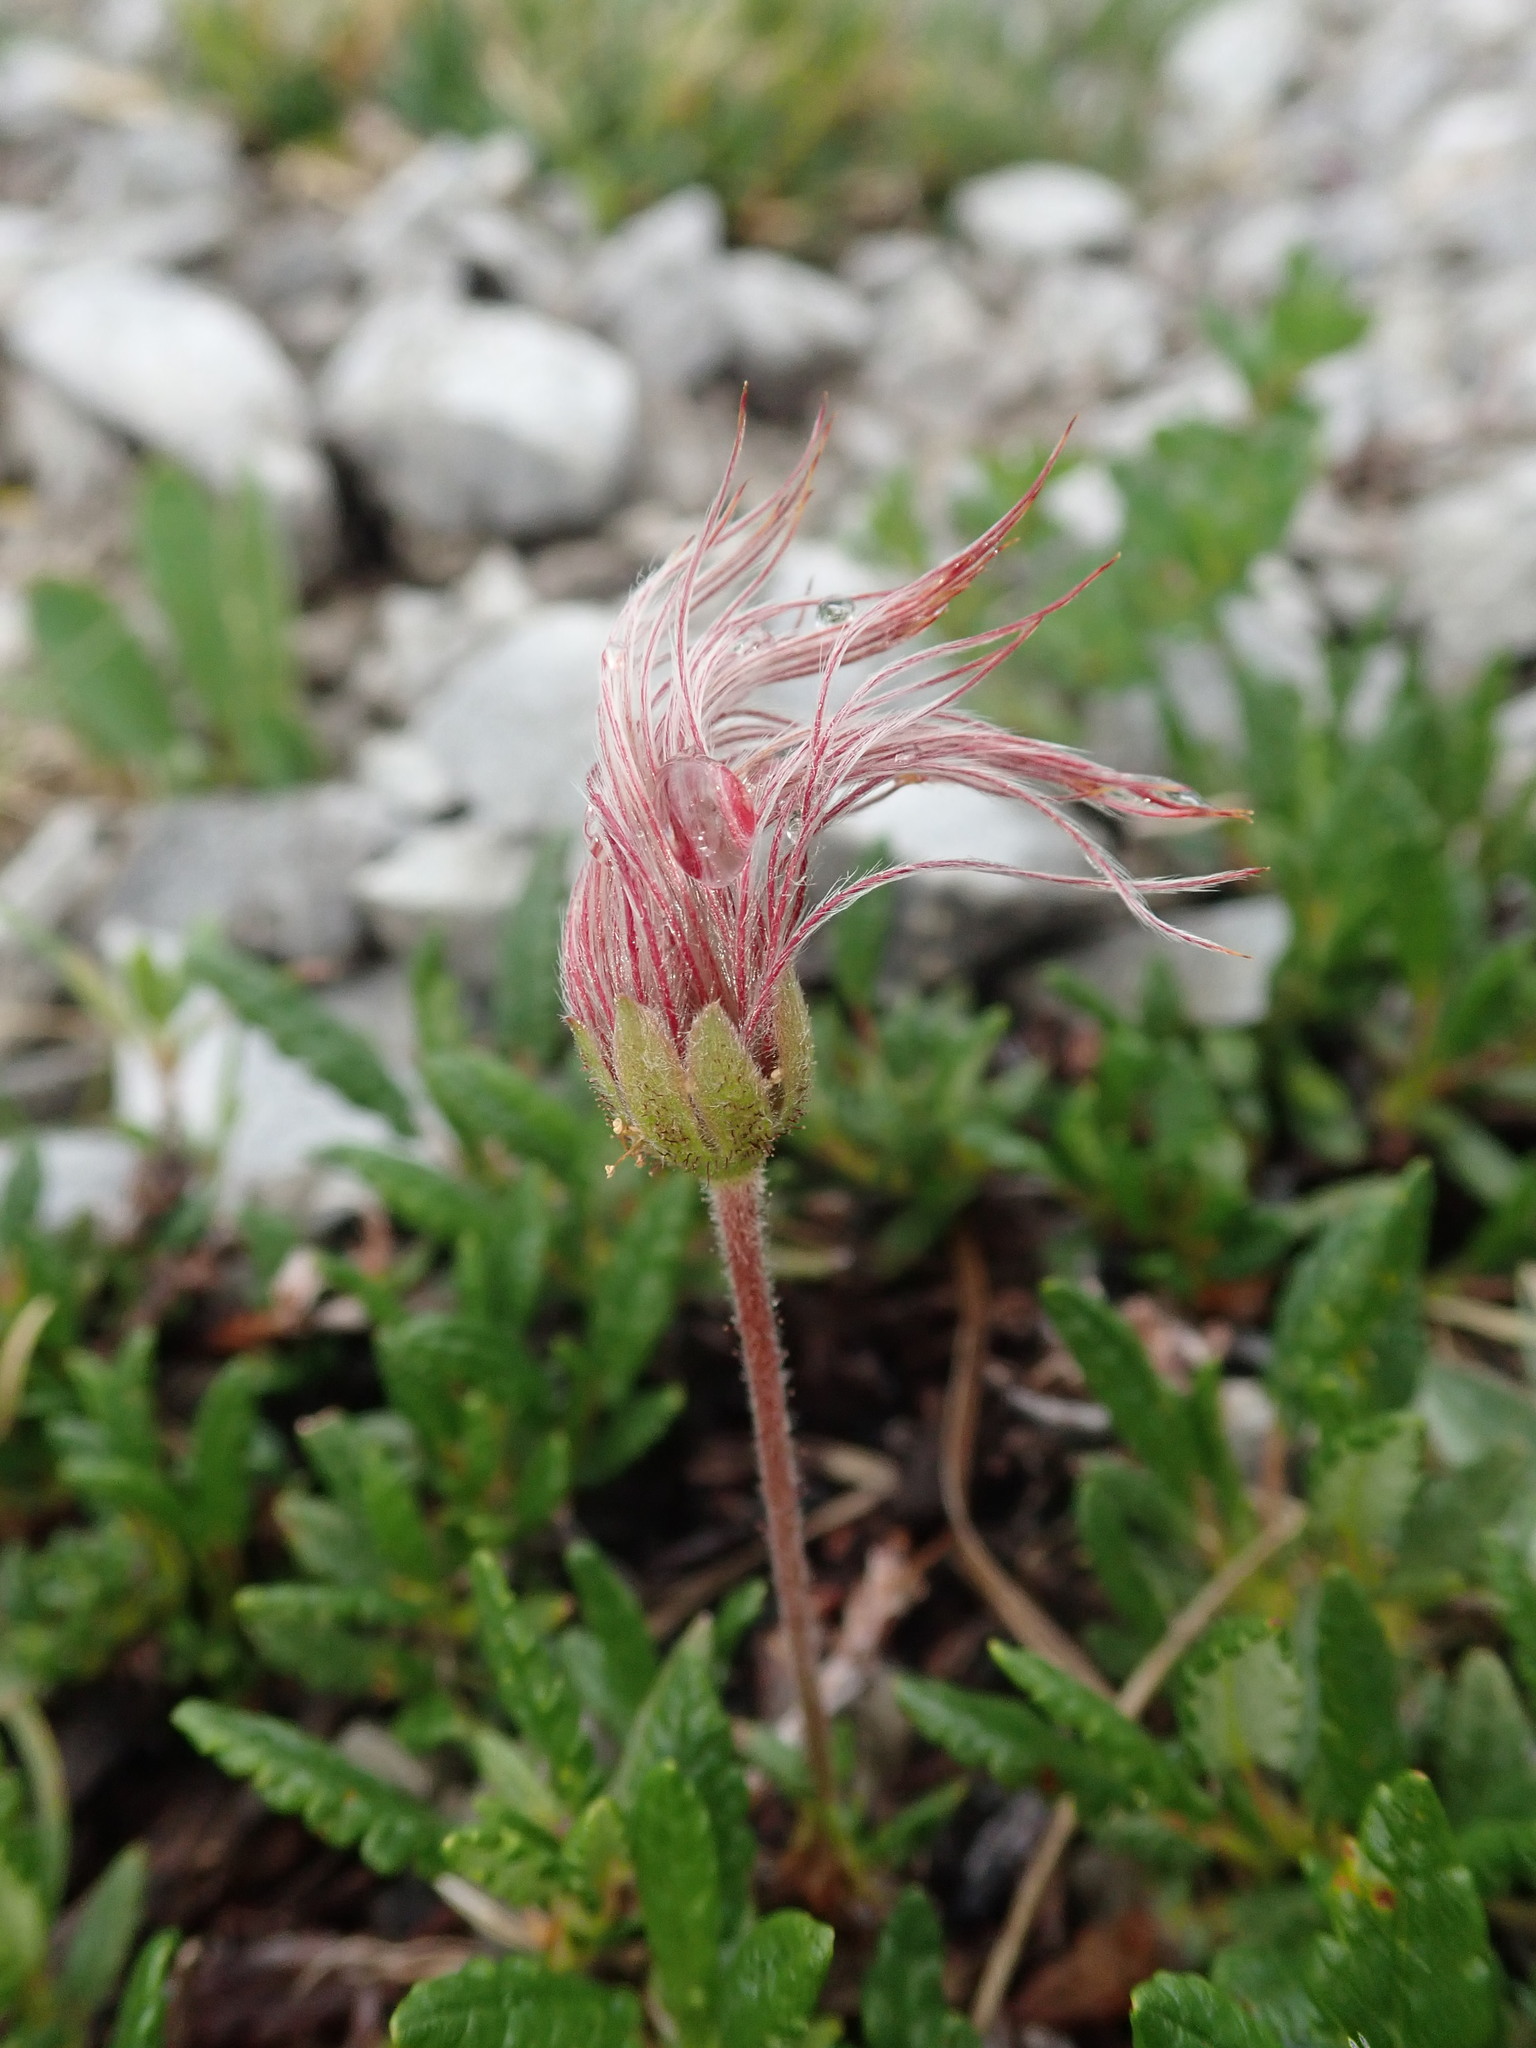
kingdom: Plantae
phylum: Tracheophyta
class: Magnoliopsida
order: Rosales
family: Rosaceae
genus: Dryas
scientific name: Dryas octopetala
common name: Eight-petal mountain-avens
